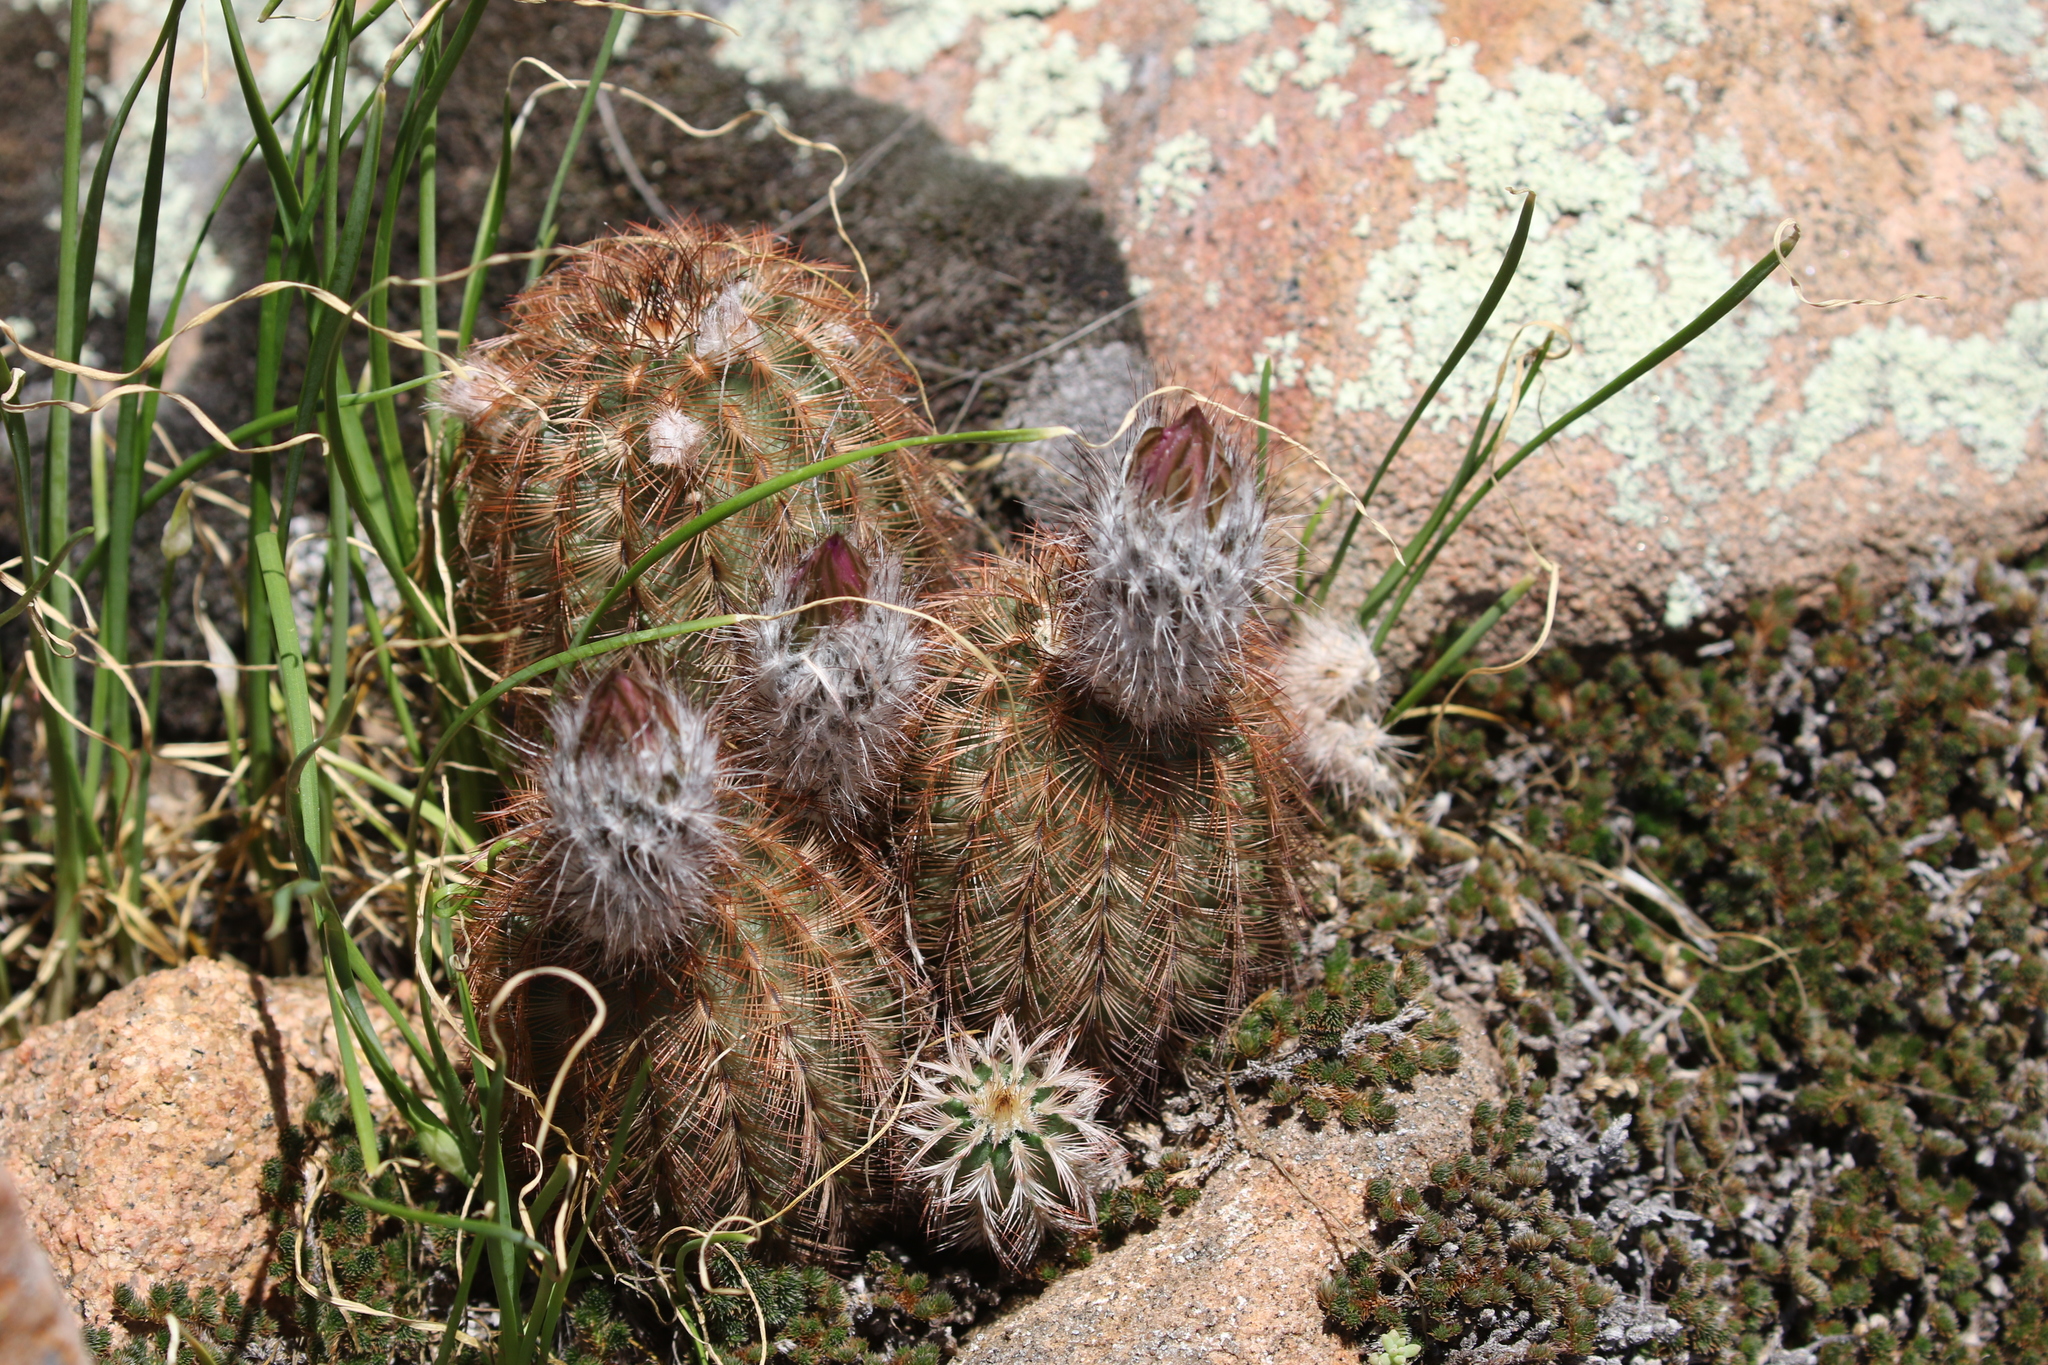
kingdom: Plantae
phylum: Tracheophyta
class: Magnoliopsida
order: Caryophyllales
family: Cactaceae
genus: Echinocereus
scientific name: Echinocereus reichenbachii
